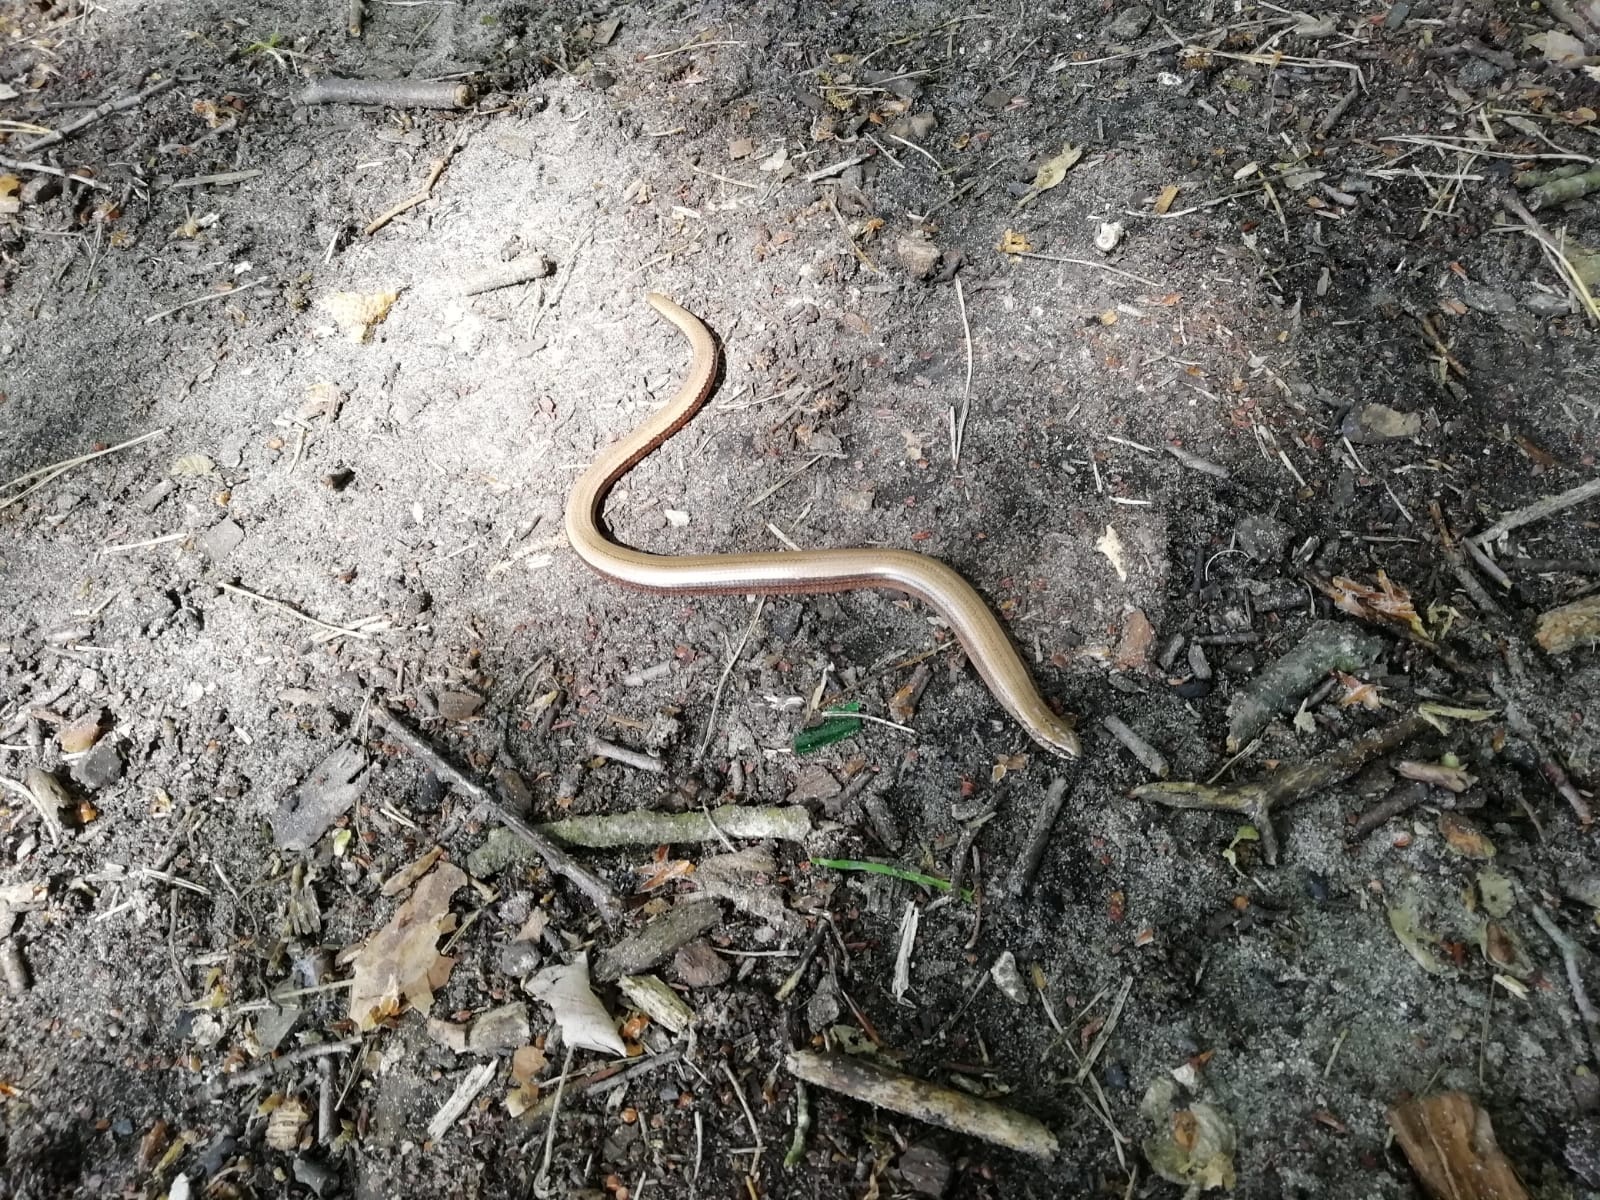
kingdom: Animalia
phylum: Chordata
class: Squamata
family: Anguidae
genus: Anguis
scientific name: Anguis fragilis
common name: Slow worm
